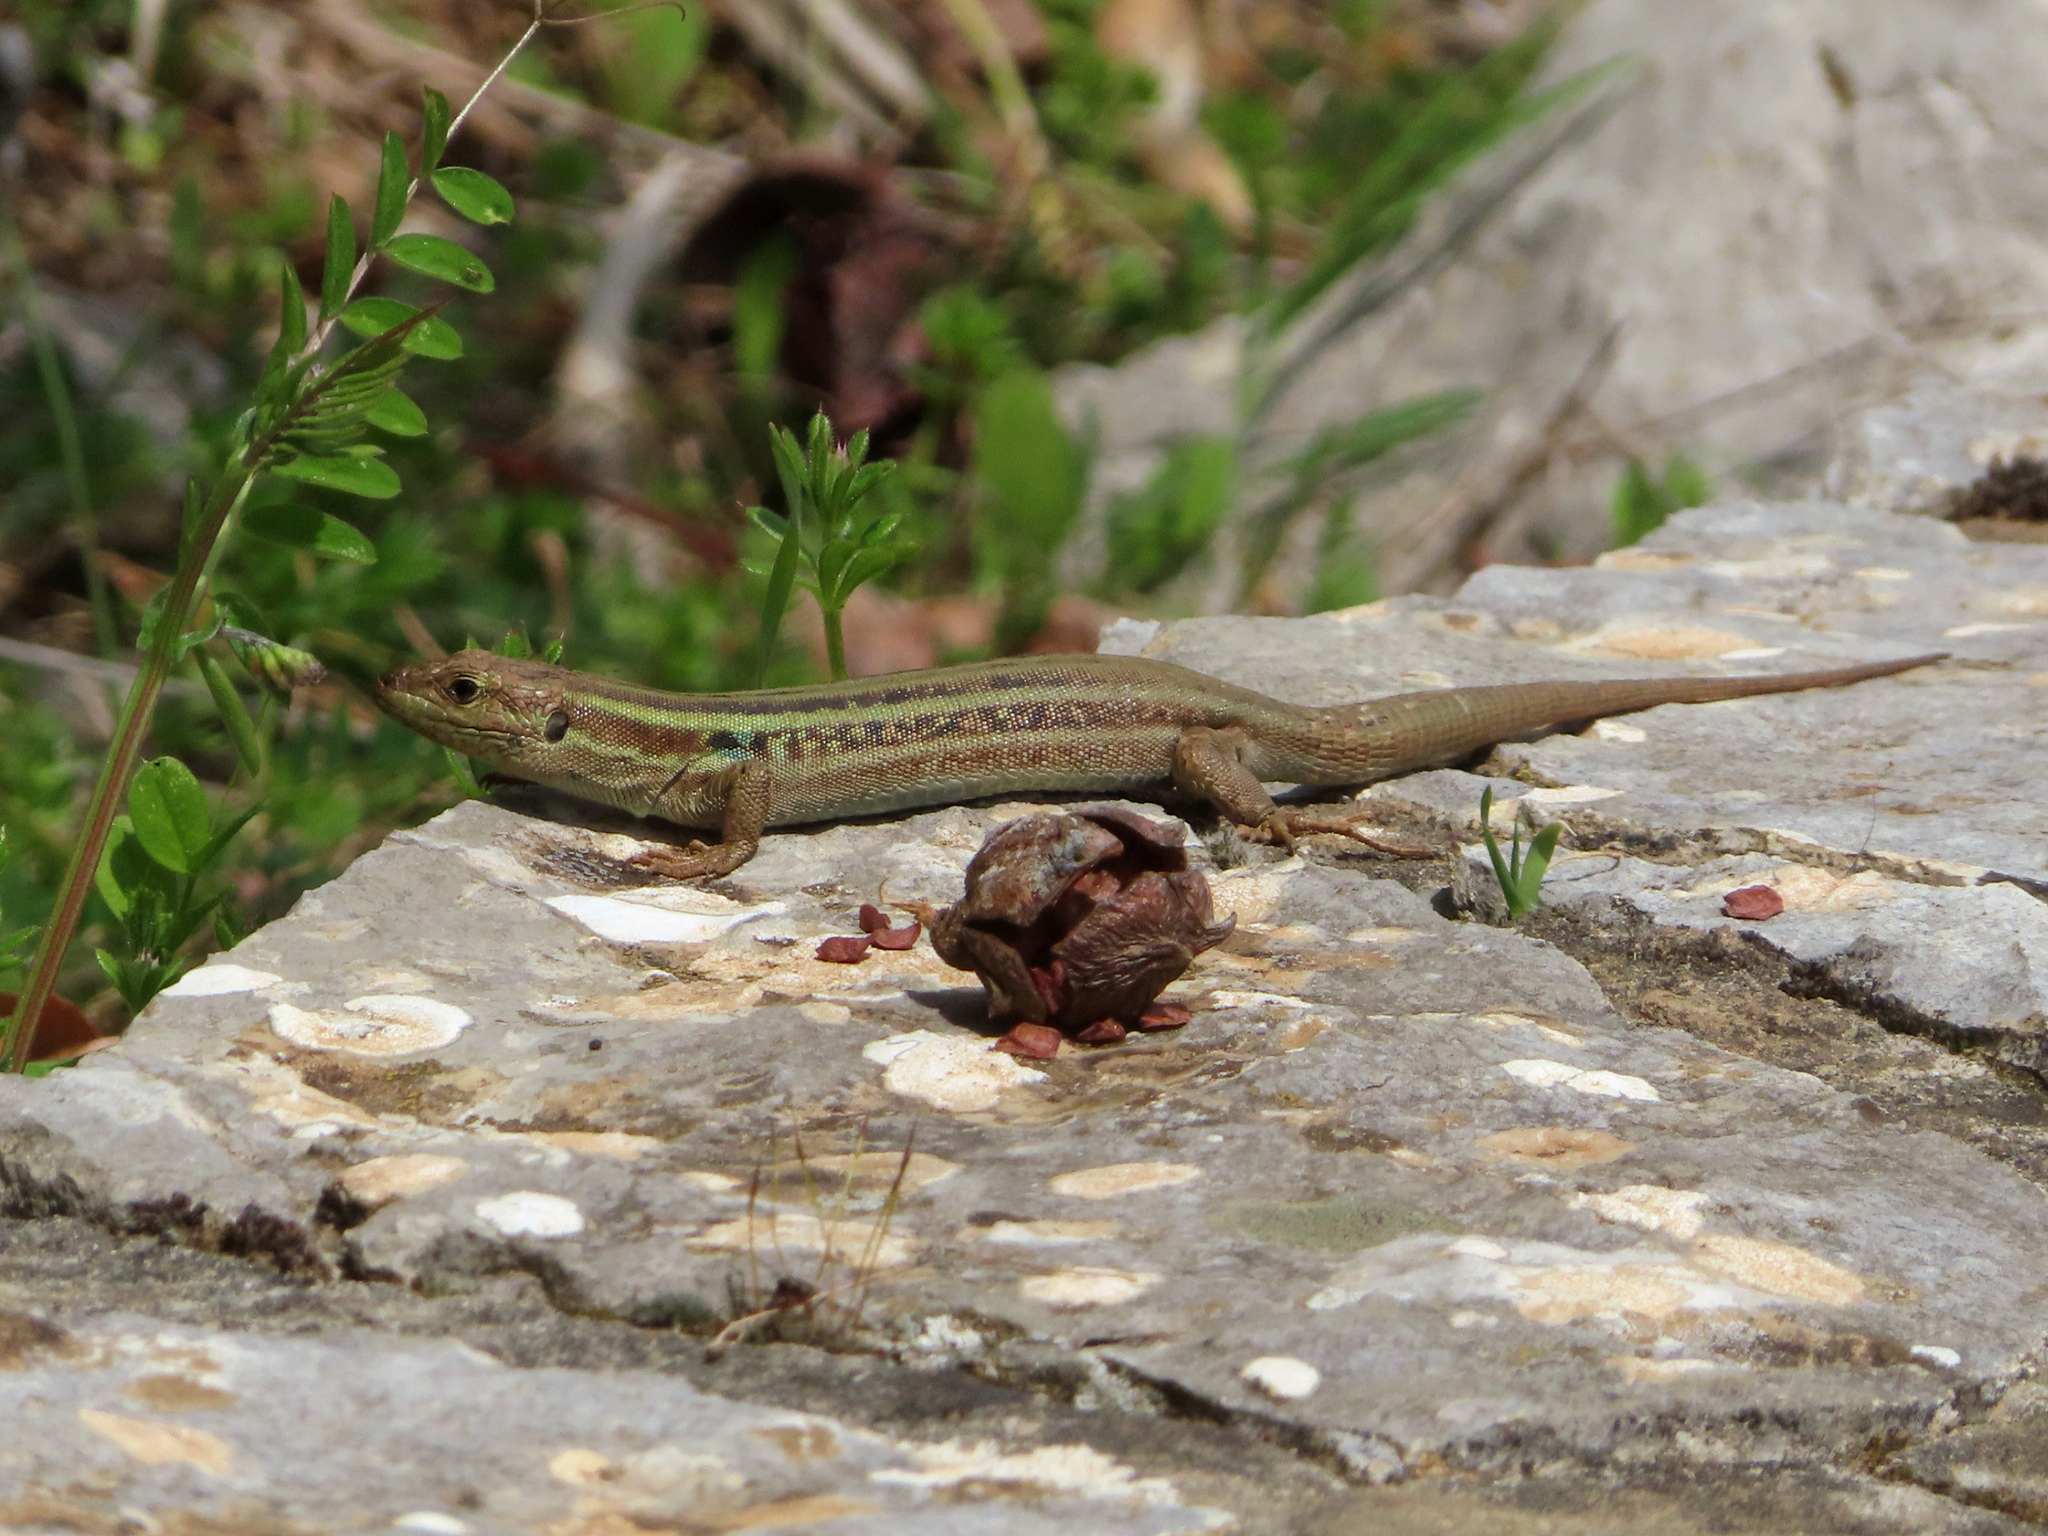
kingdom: Animalia
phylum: Chordata
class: Squamata
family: Lacertidae
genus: Podarcis
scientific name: Podarcis peloponnesiacus
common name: Peloponnese wall lizard
